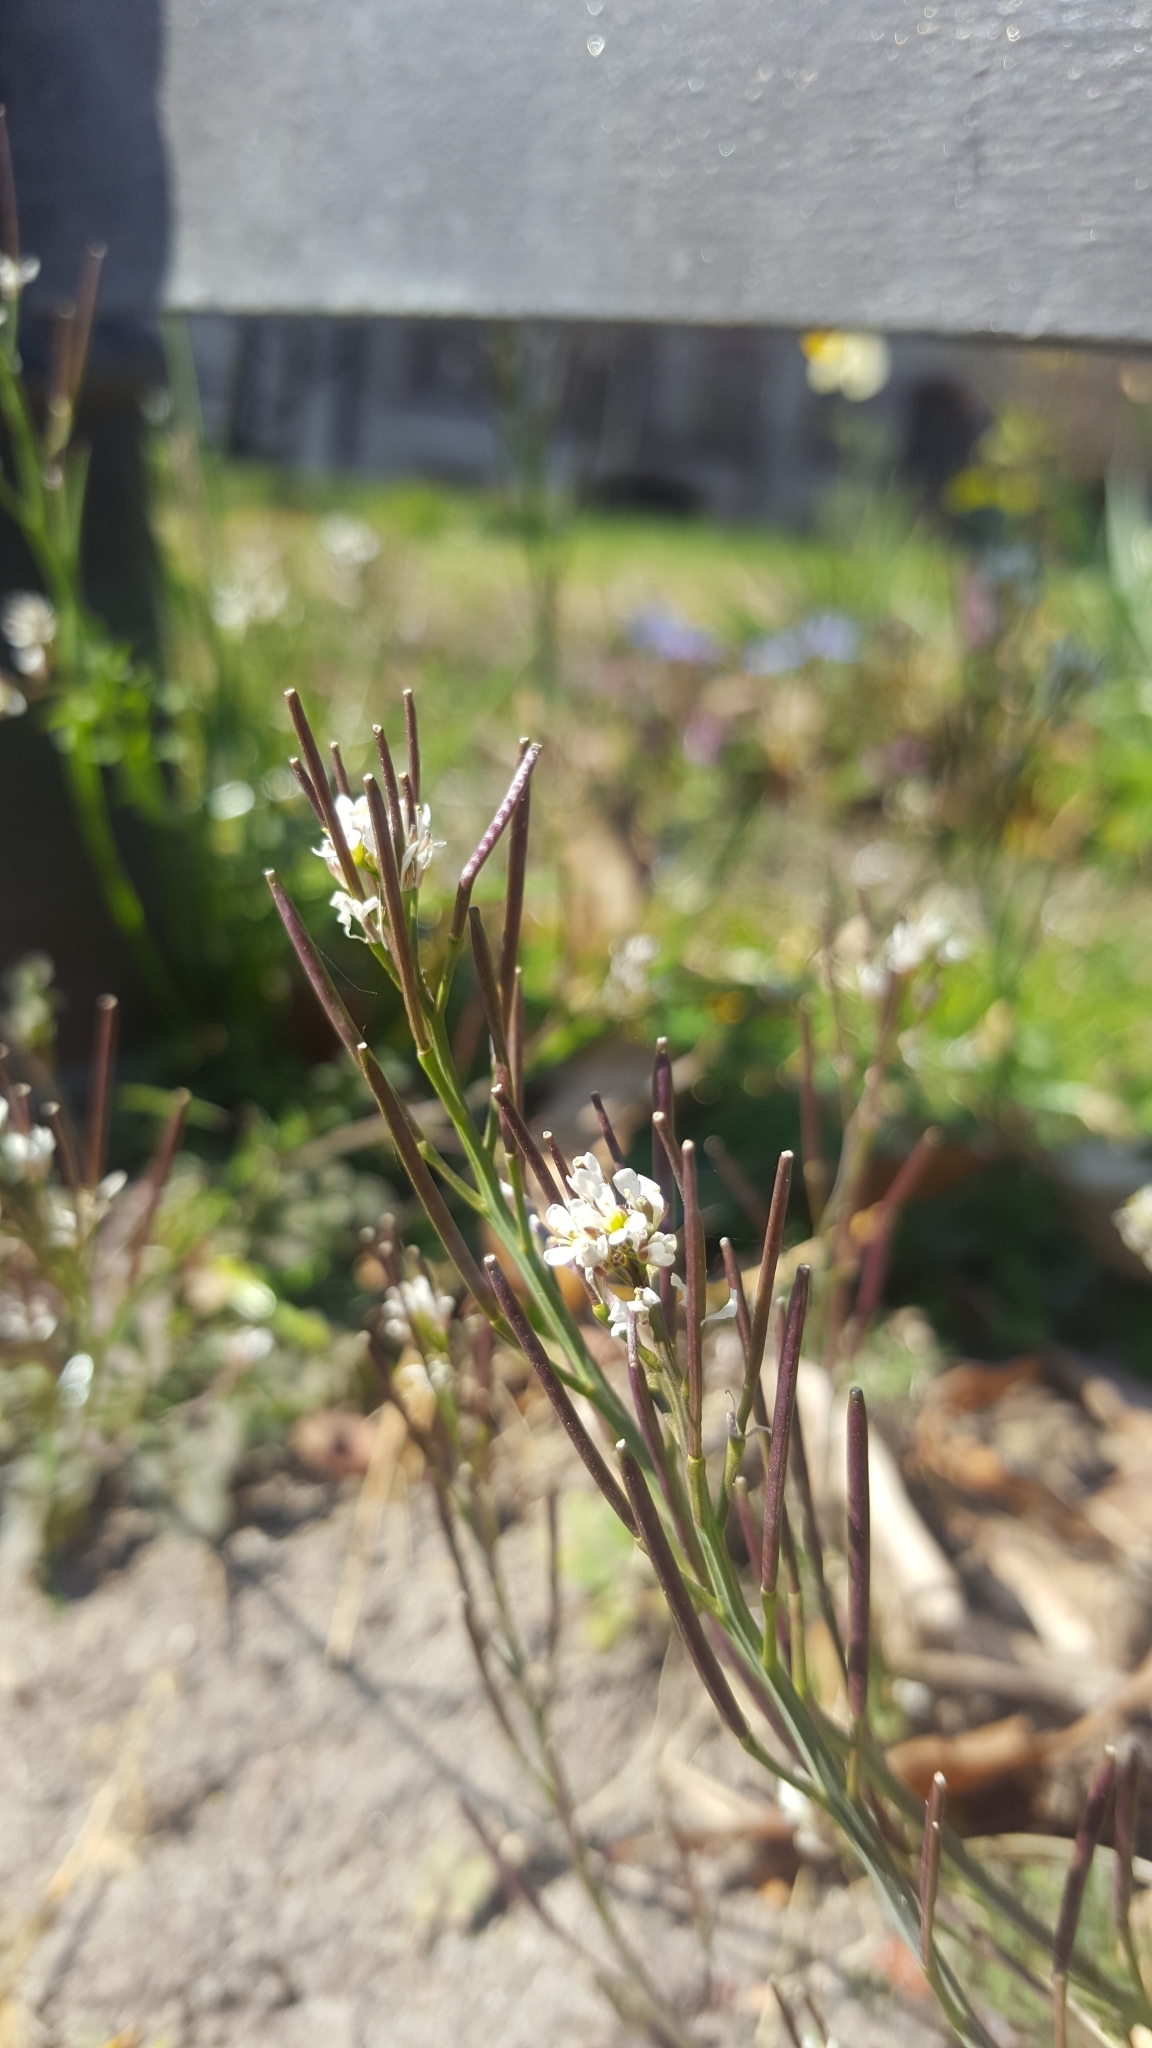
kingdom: Plantae
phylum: Tracheophyta
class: Magnoliopsida
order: Brassicales
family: Brassicaceae
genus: Cardamine
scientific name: Cardamine hirsuta
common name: Hairy bittercress
